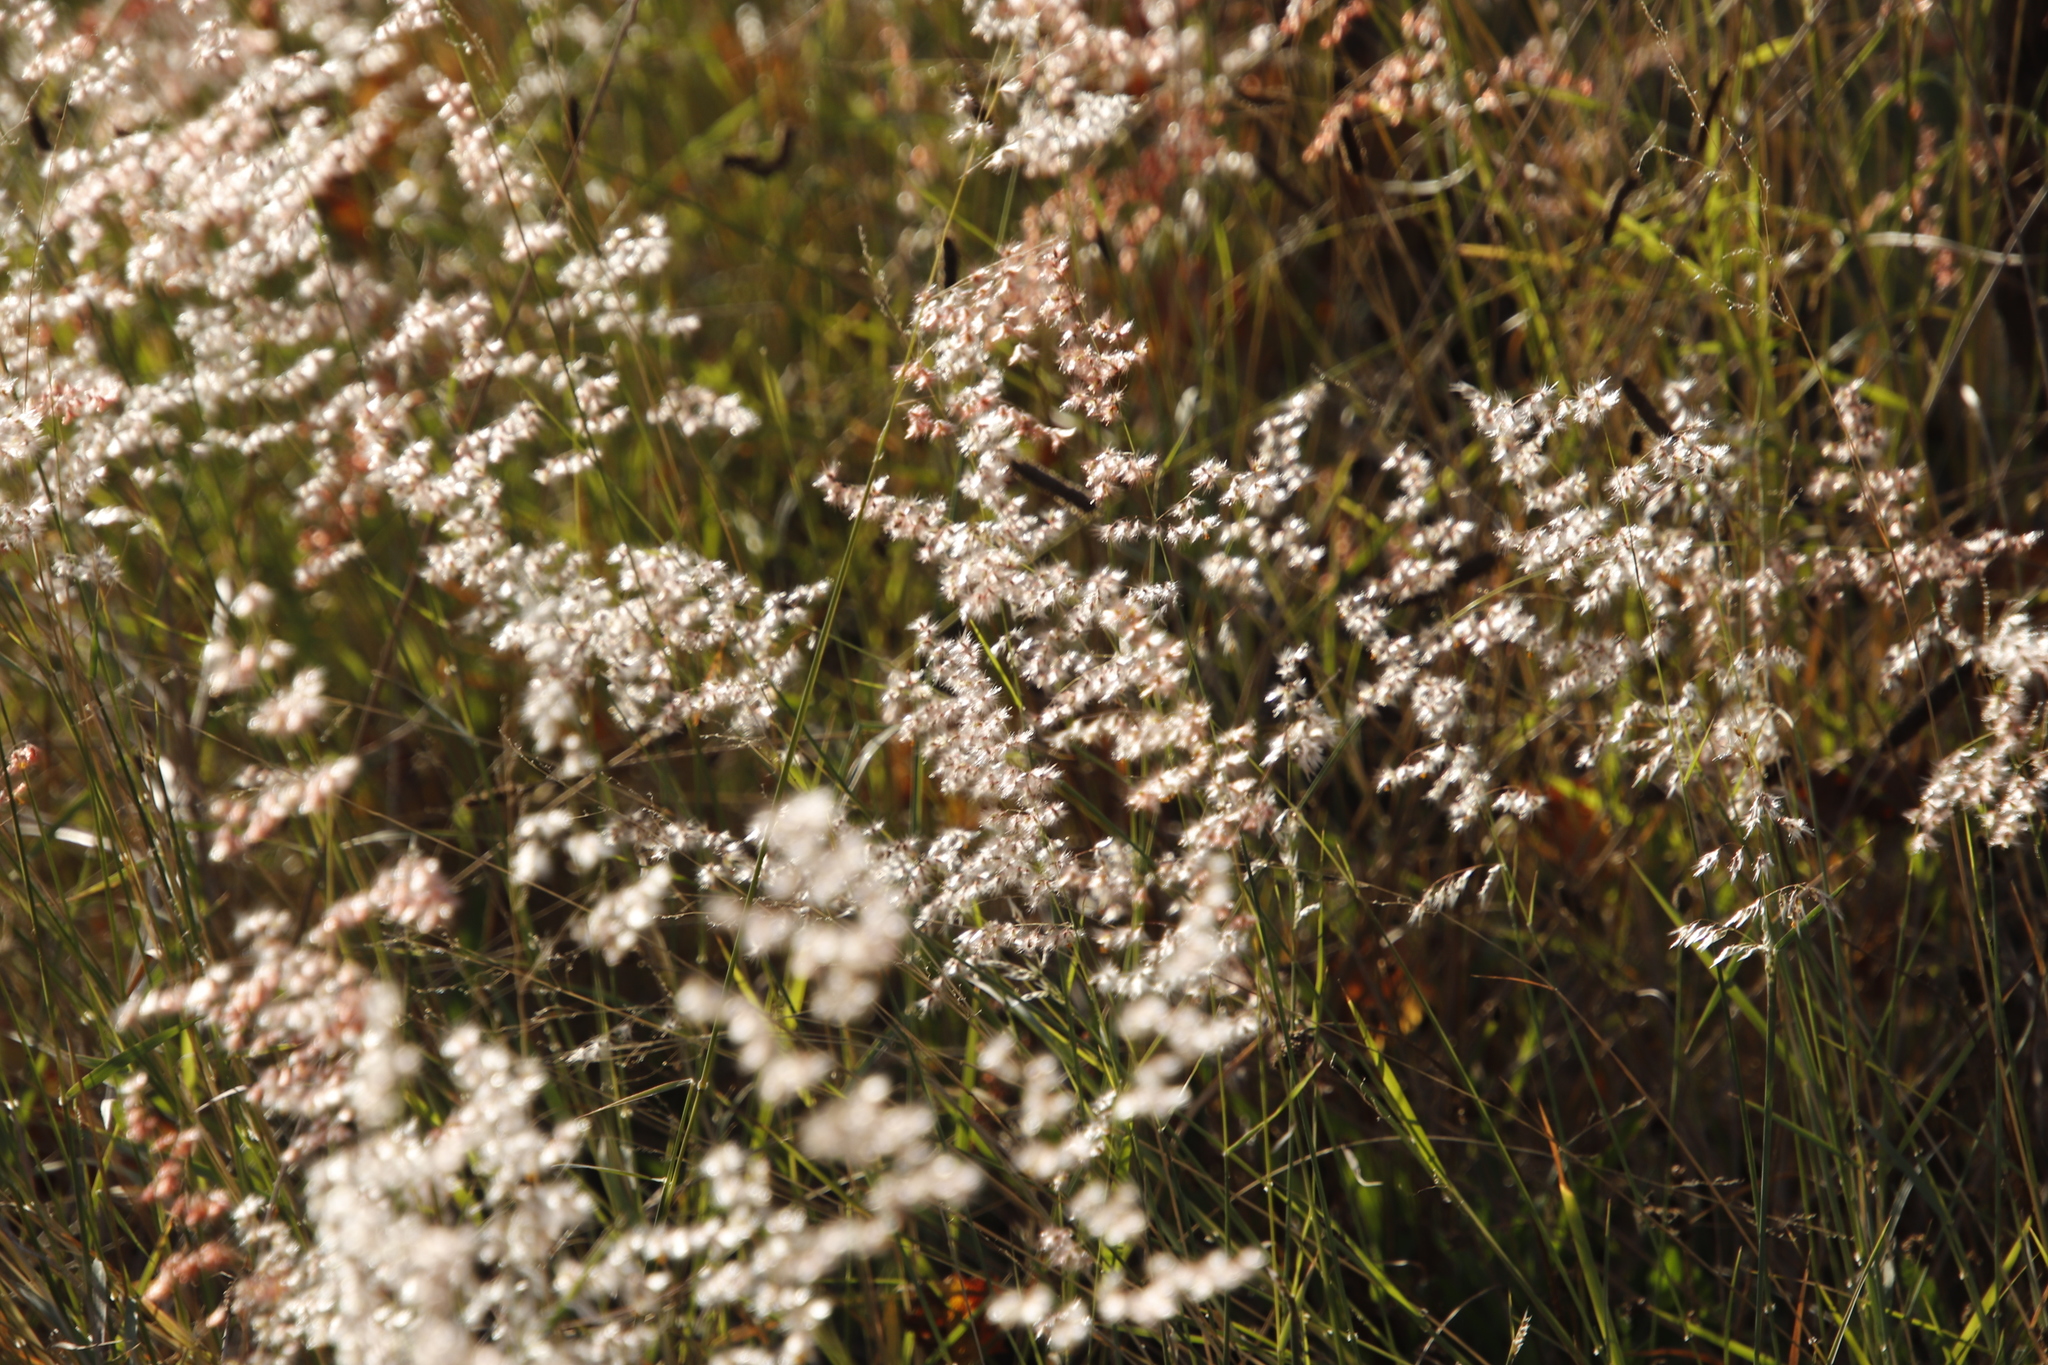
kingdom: Plantae
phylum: Tracheophyta
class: Liliopsida
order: Poales
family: Poaceae
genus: Melinis
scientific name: Melinis repens
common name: Rose natal grass
